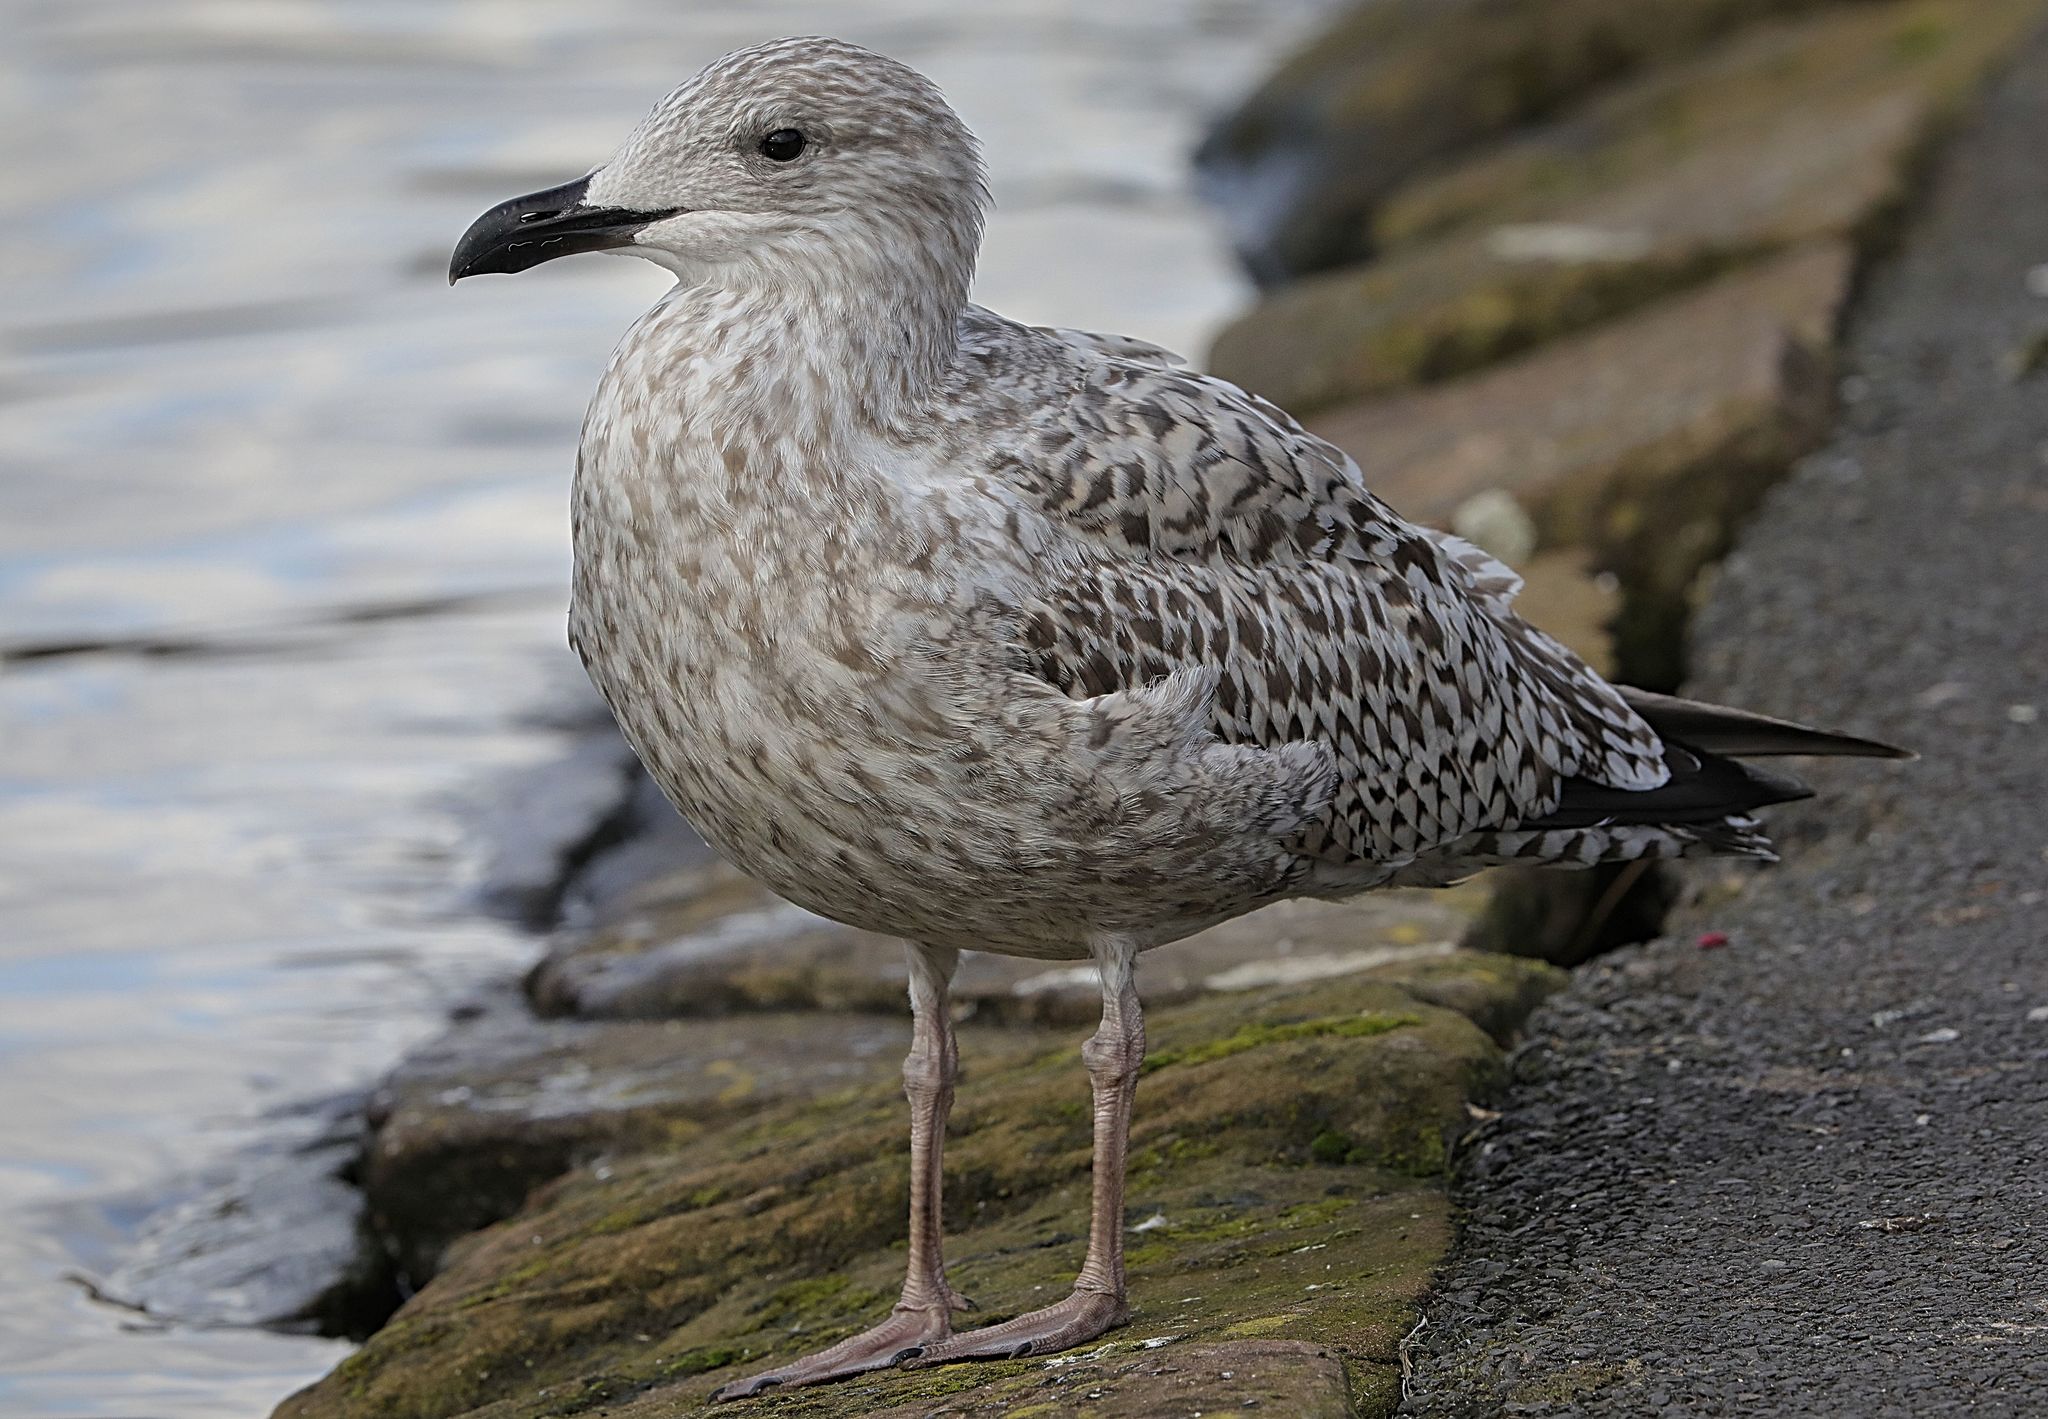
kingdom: Animalia
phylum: Chordata
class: Aves
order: Charadriiformes
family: Laridae
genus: Larus
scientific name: Larus argentatus
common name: Herring gull
